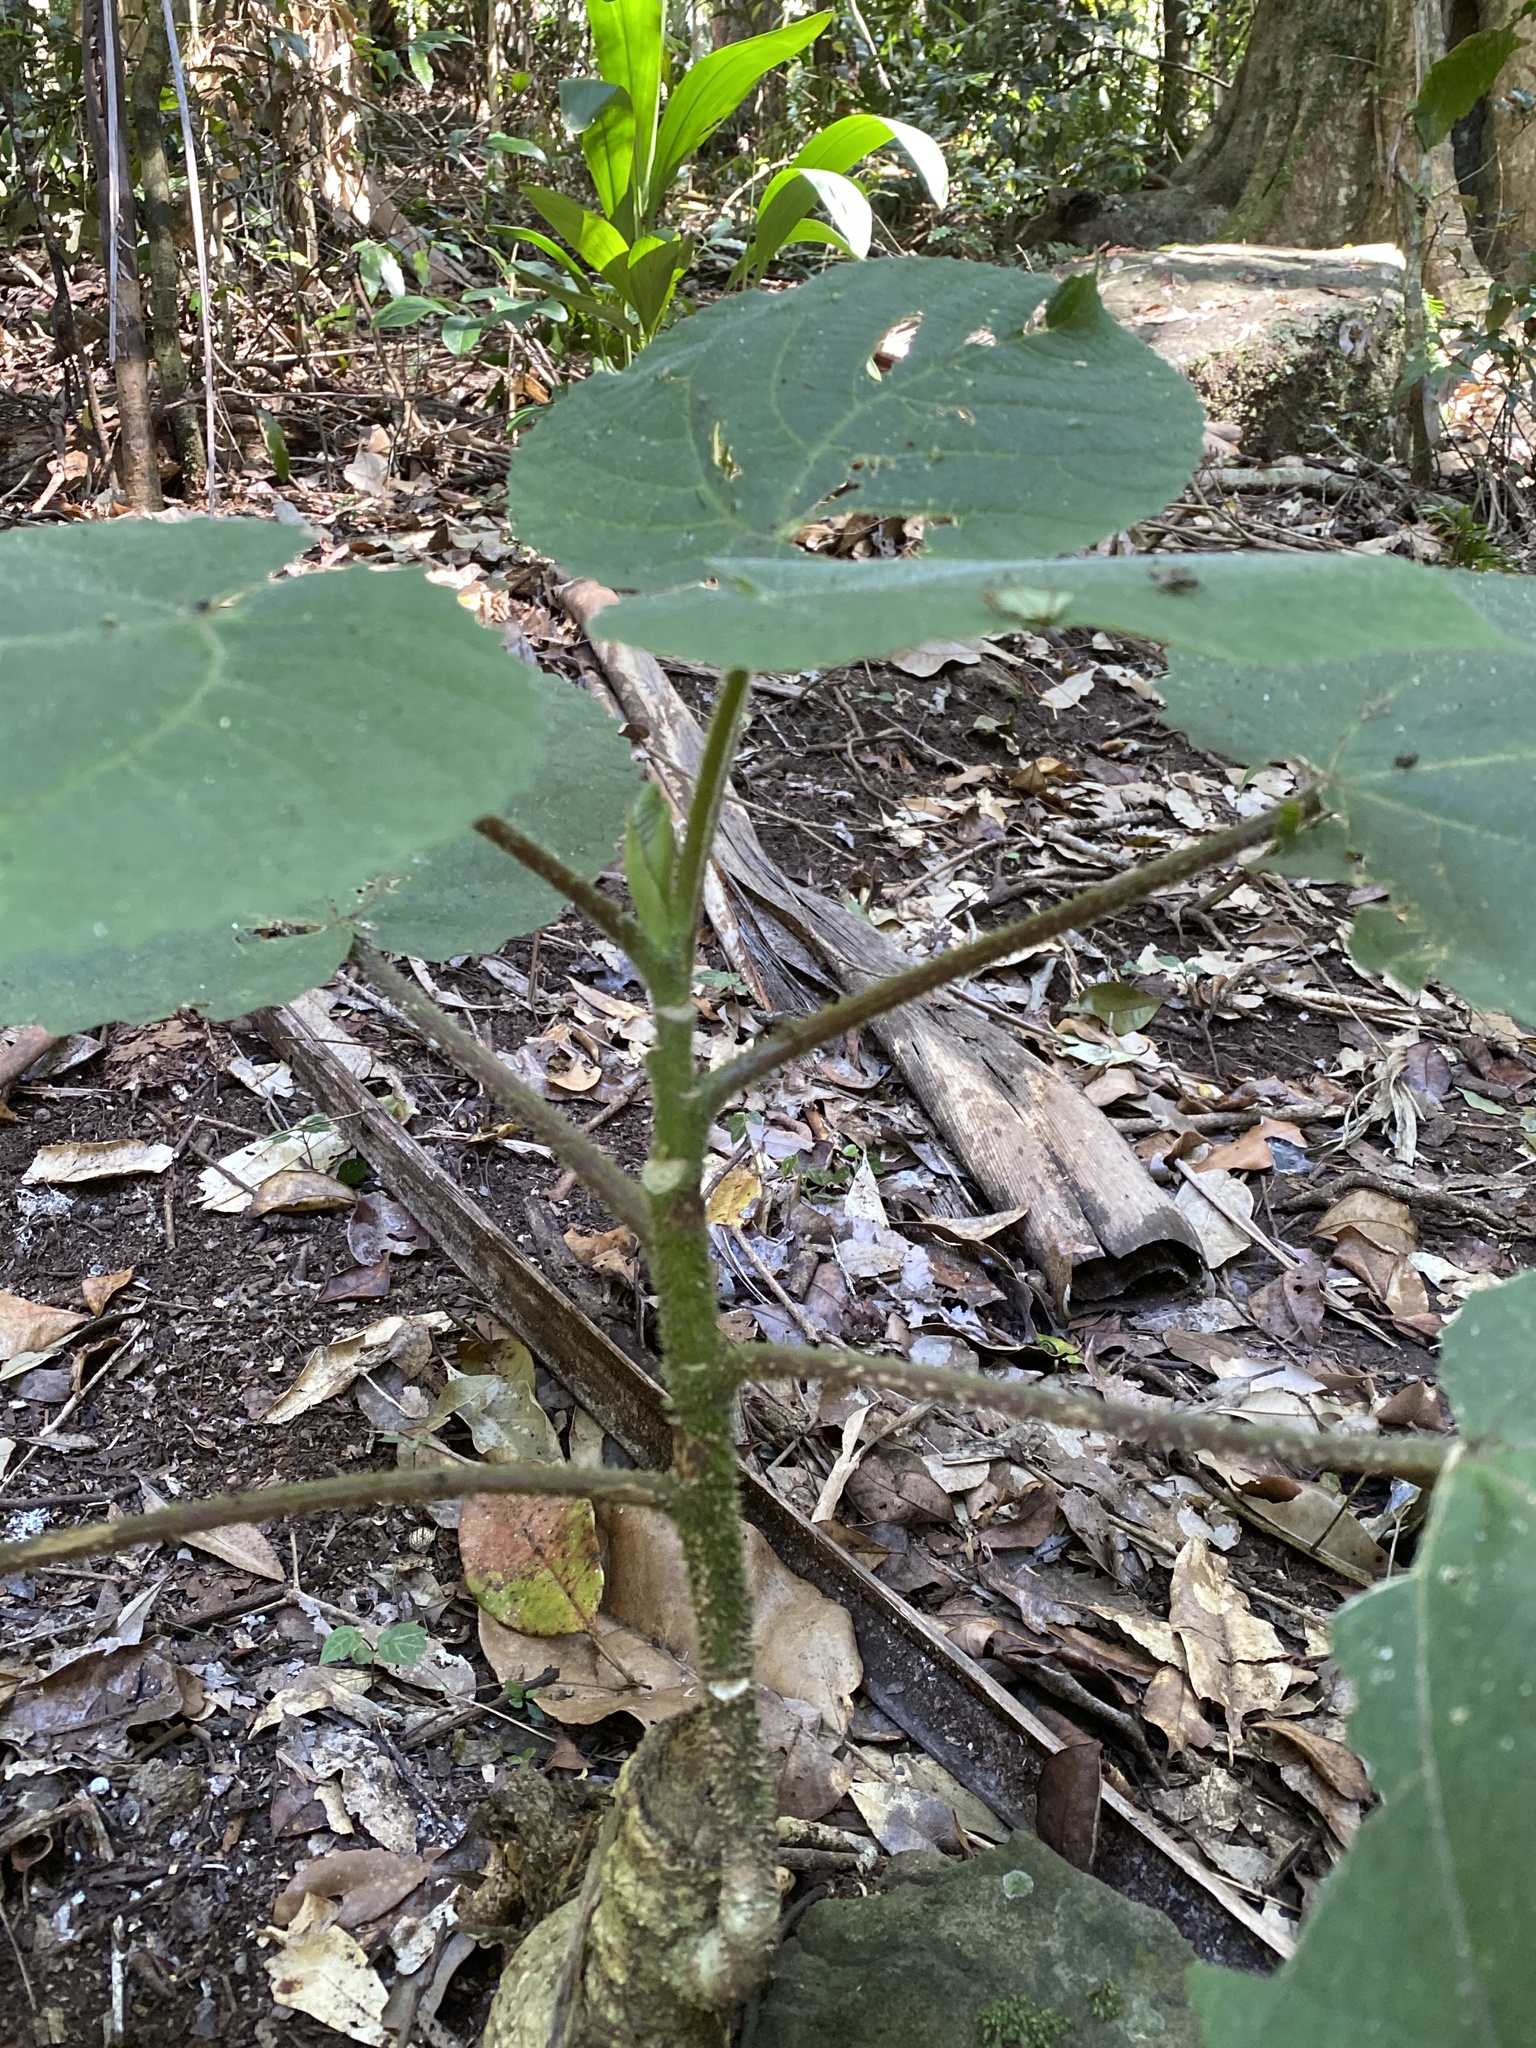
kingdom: Plantae
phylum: Tracheophyta
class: Magnoliopsida
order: Rosales
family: Urticaceae
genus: Dendrocnide
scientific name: Dendrocnide excelsa
